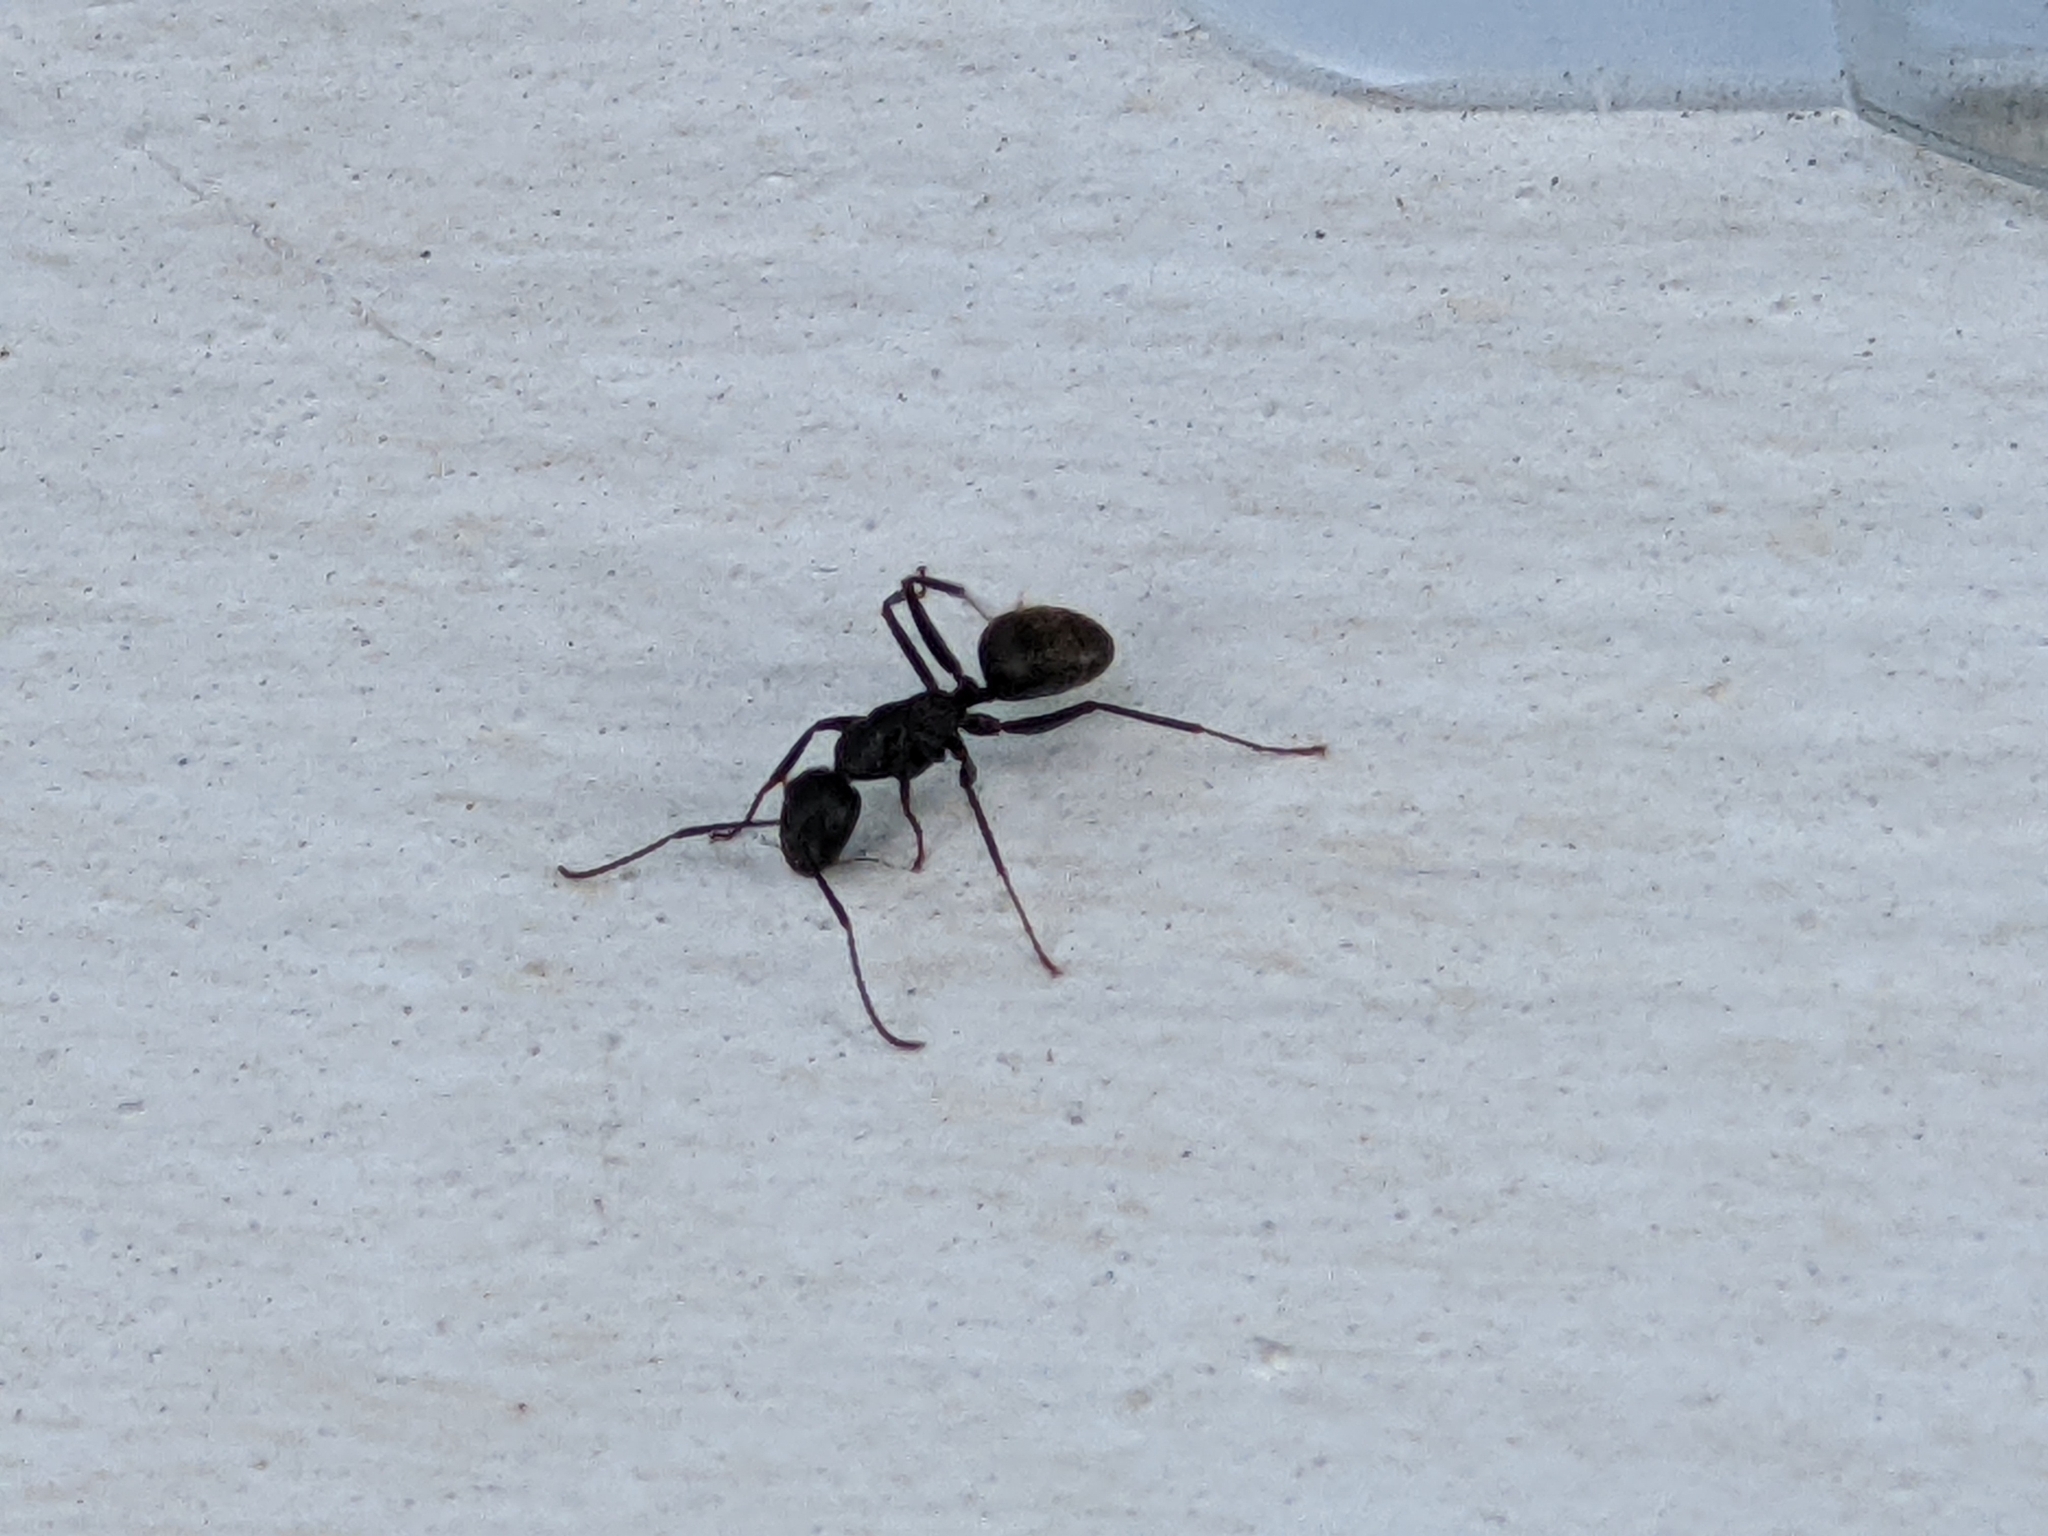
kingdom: Animalia
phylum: Arthropoda
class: Insecta
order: Hymenoptera
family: Formicidae
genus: Camponotus
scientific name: Camponotus pennsylvanicus
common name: Black carpenter ant
